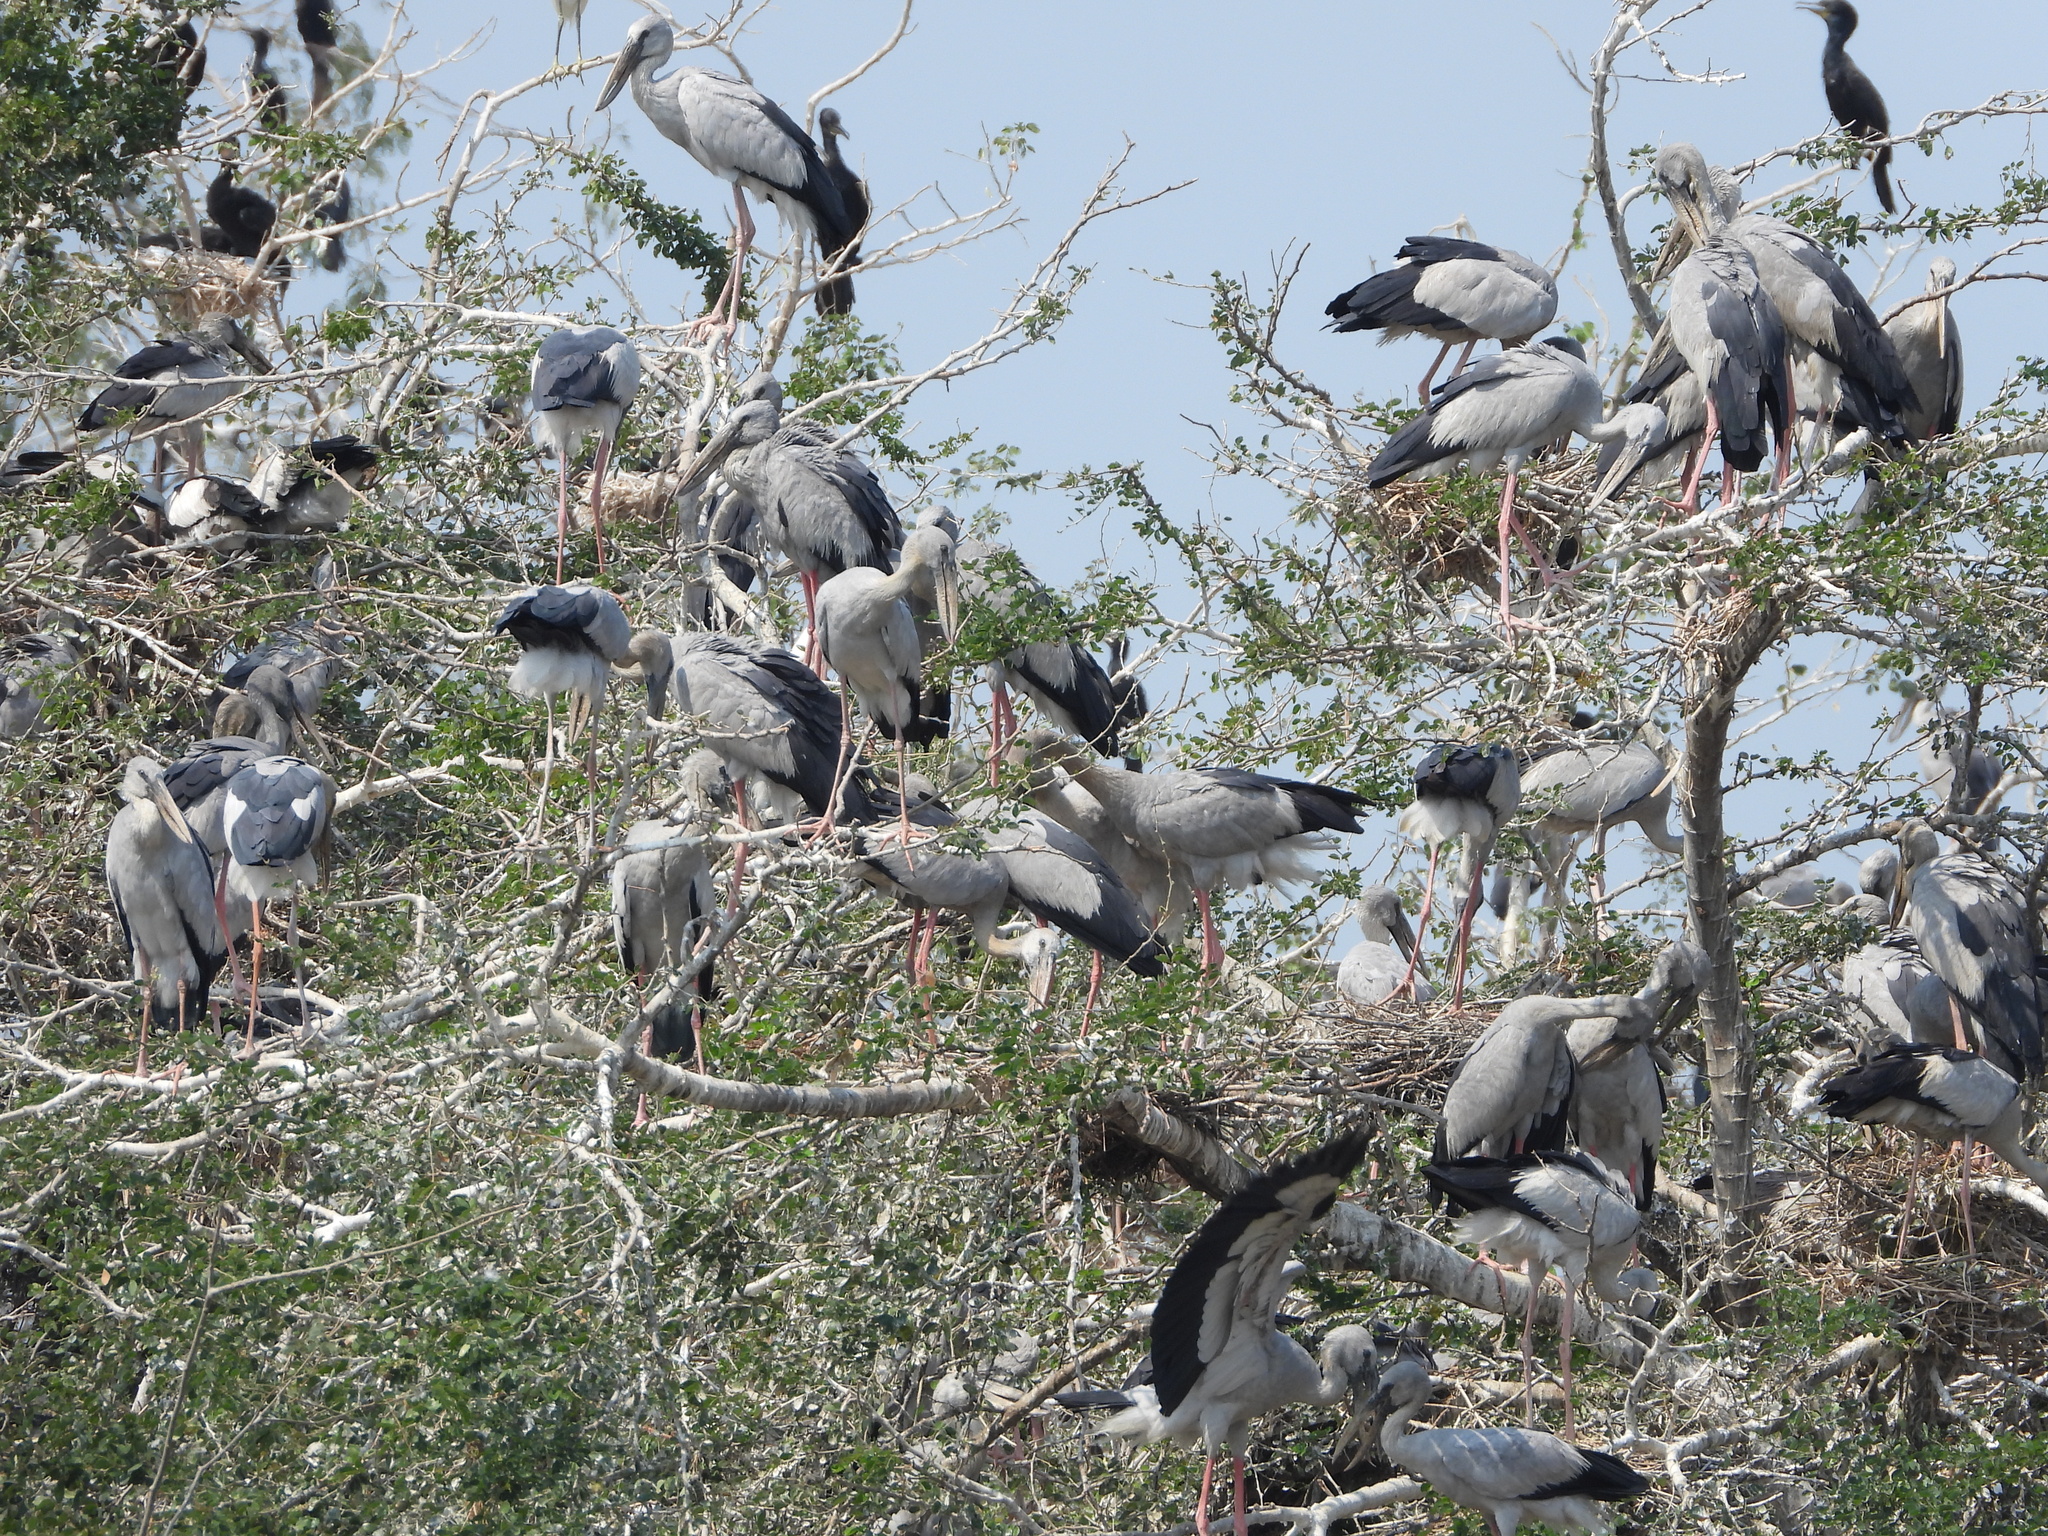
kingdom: Animalia
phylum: Chordata
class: Aves
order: Ciconiiformes
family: Ciconiidae
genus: Anastomus
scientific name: Anastomus oscitans
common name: Asian openbill
